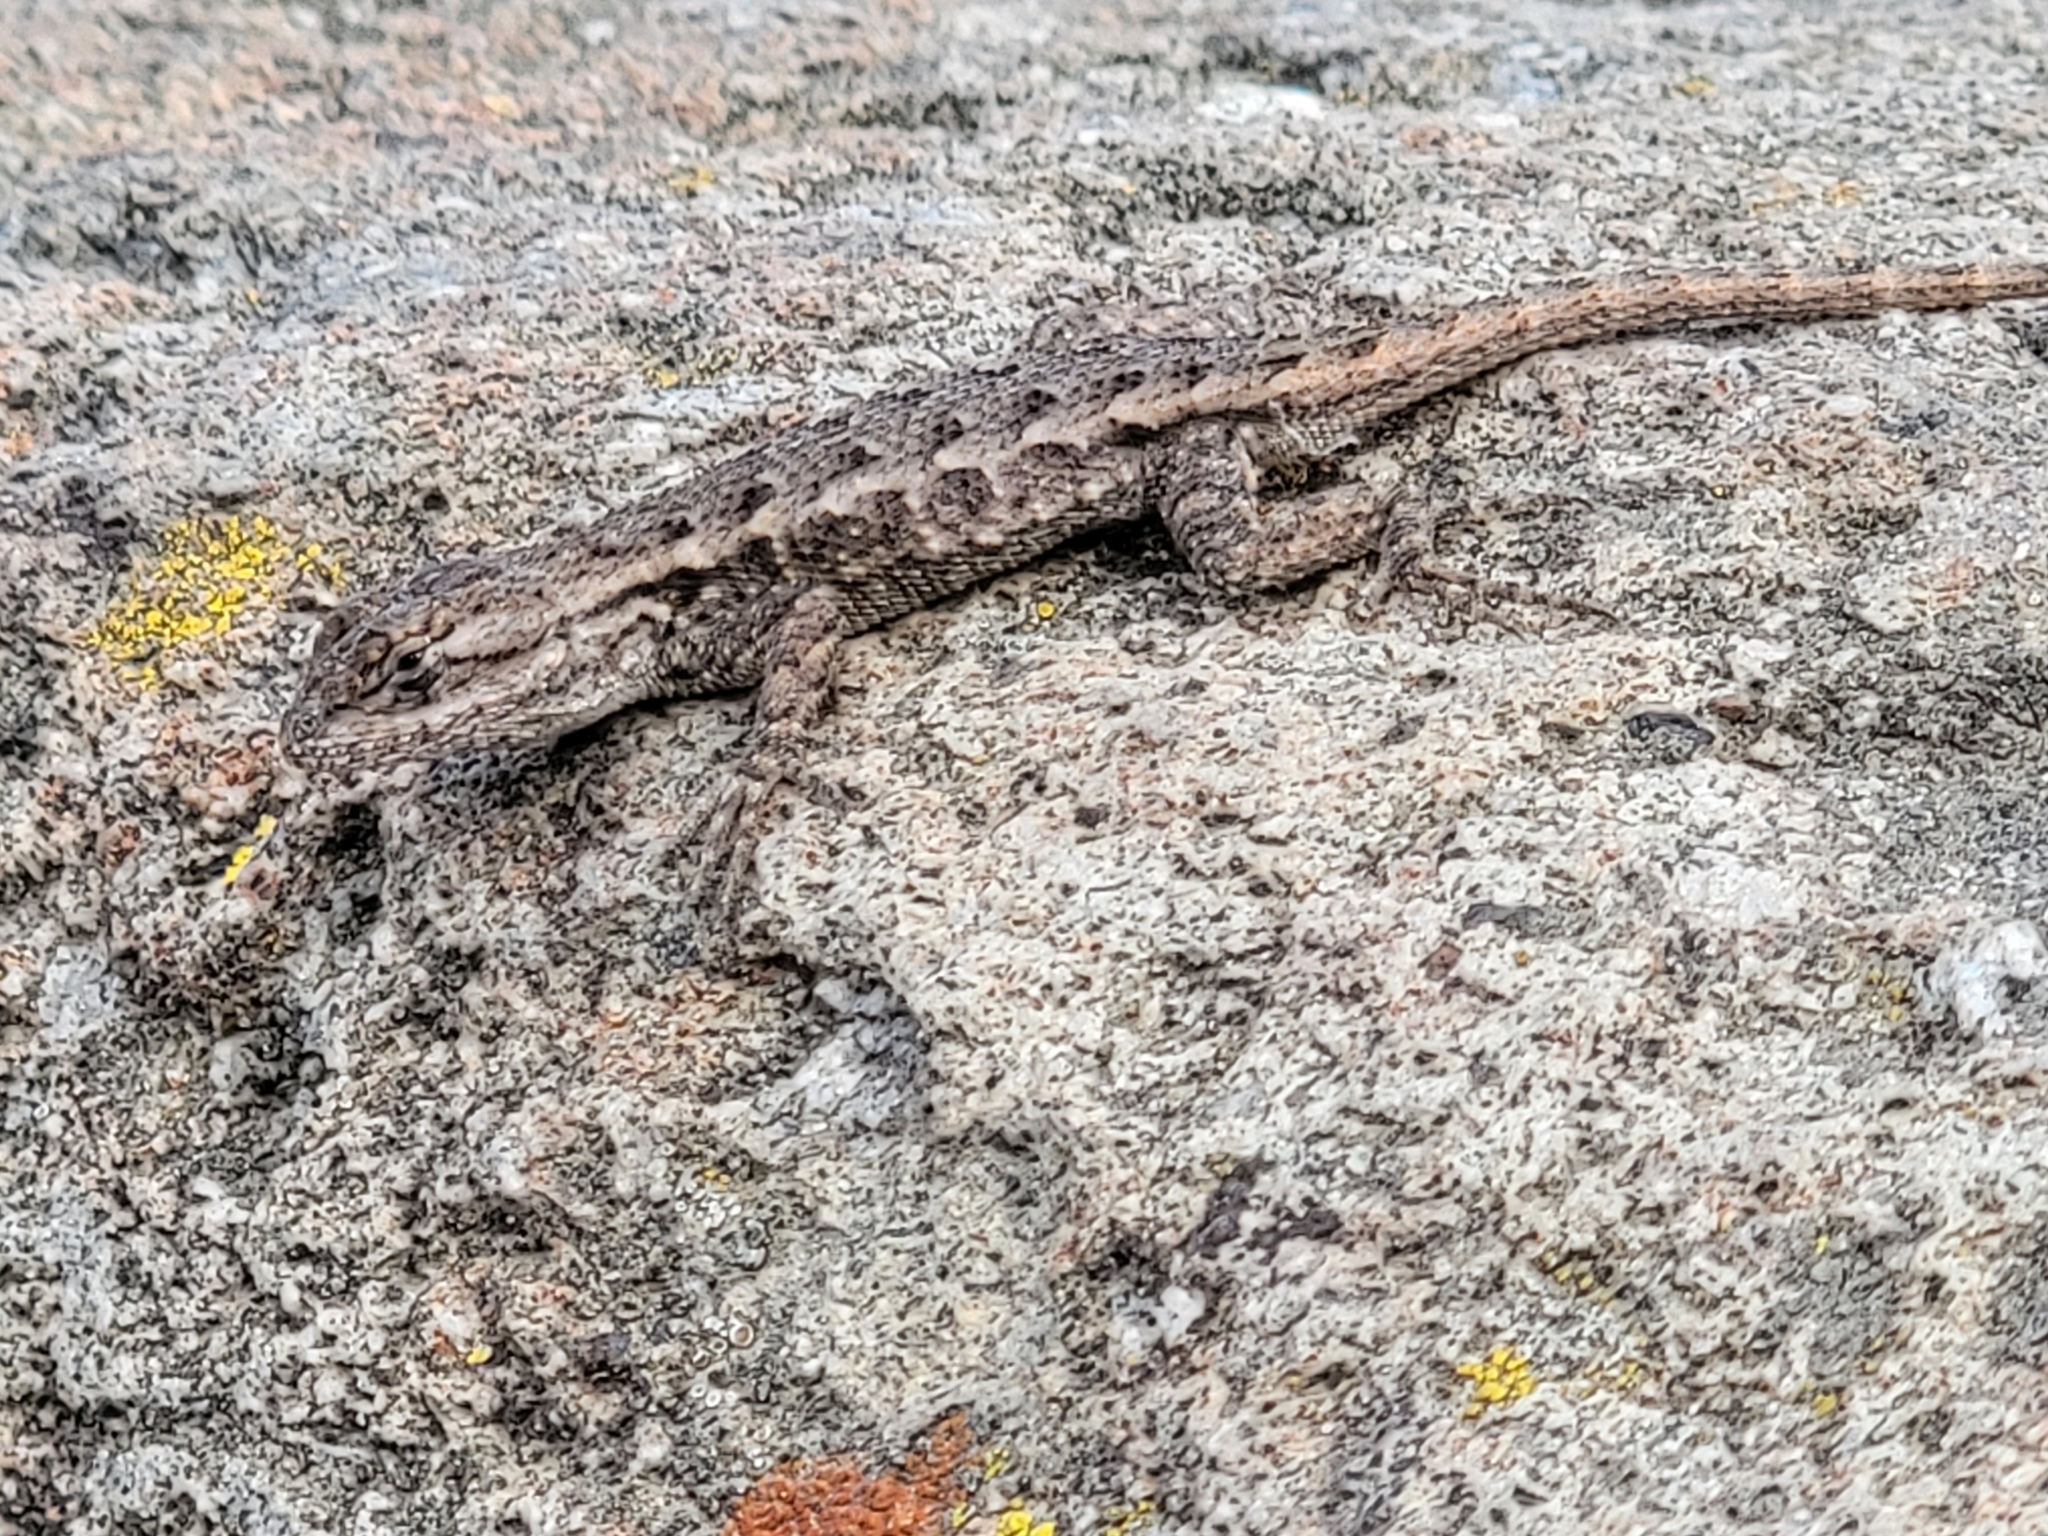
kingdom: Animalia
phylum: Chordata
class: Squamata
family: Phrynosomatidae
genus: Sceloporus
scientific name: Sceloporus occidentalis
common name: Western fence lizard
